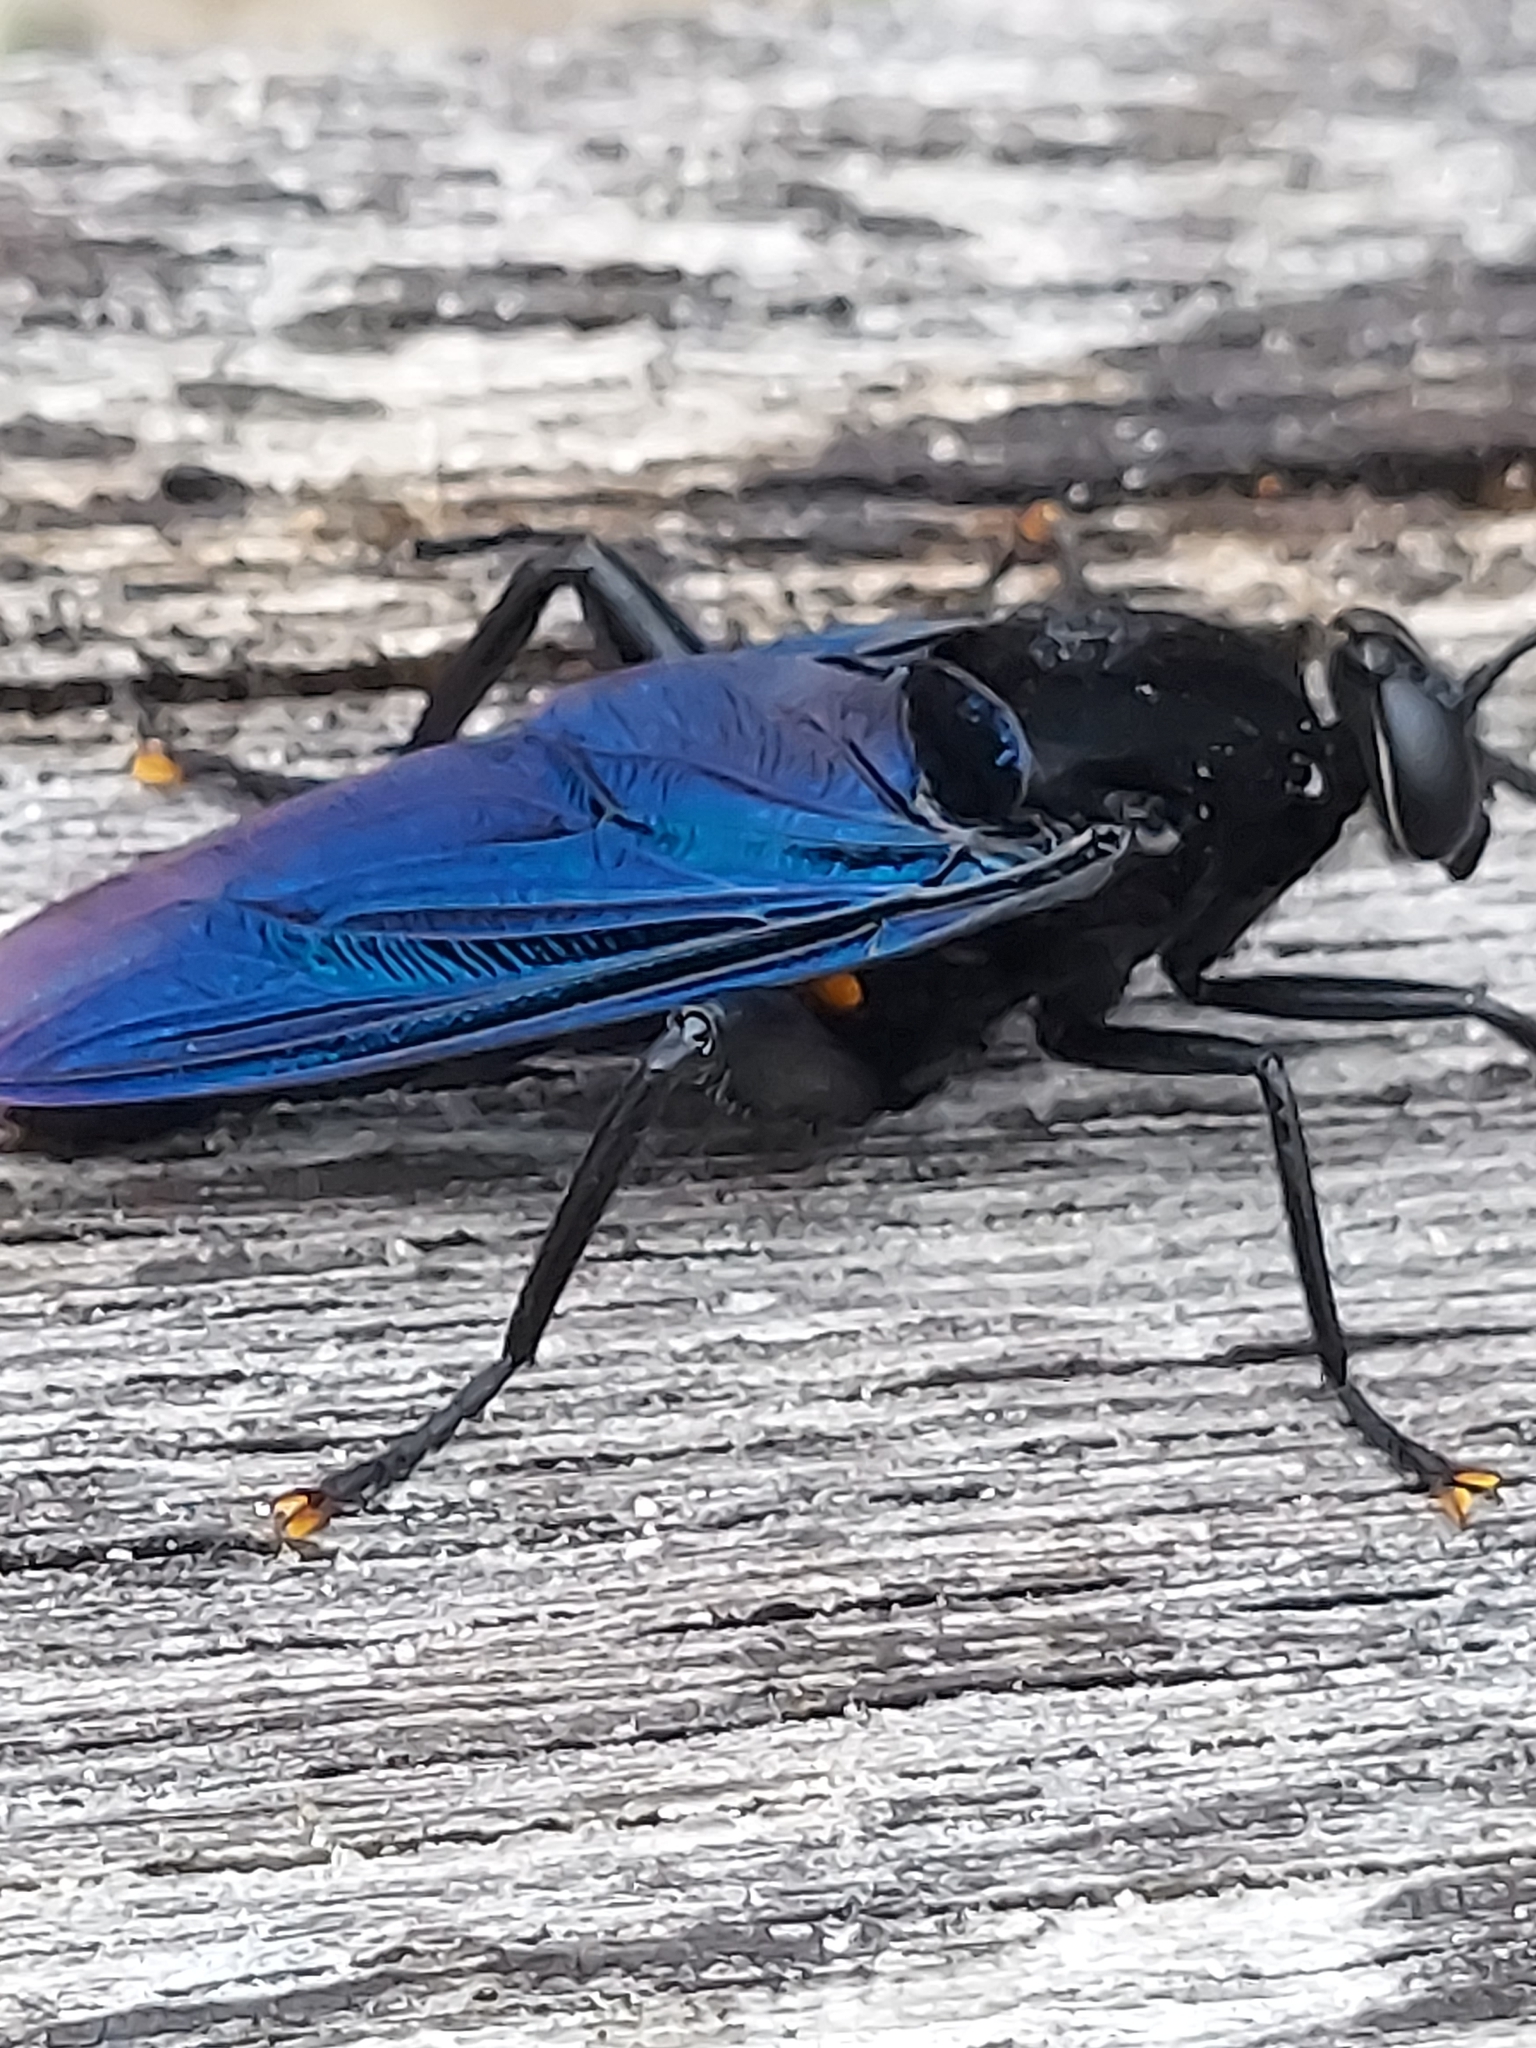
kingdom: Animalia
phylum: Arthropoda
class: Insecta
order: Diptera
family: Mydidae
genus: Mydas
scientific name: Mydas clavatus
